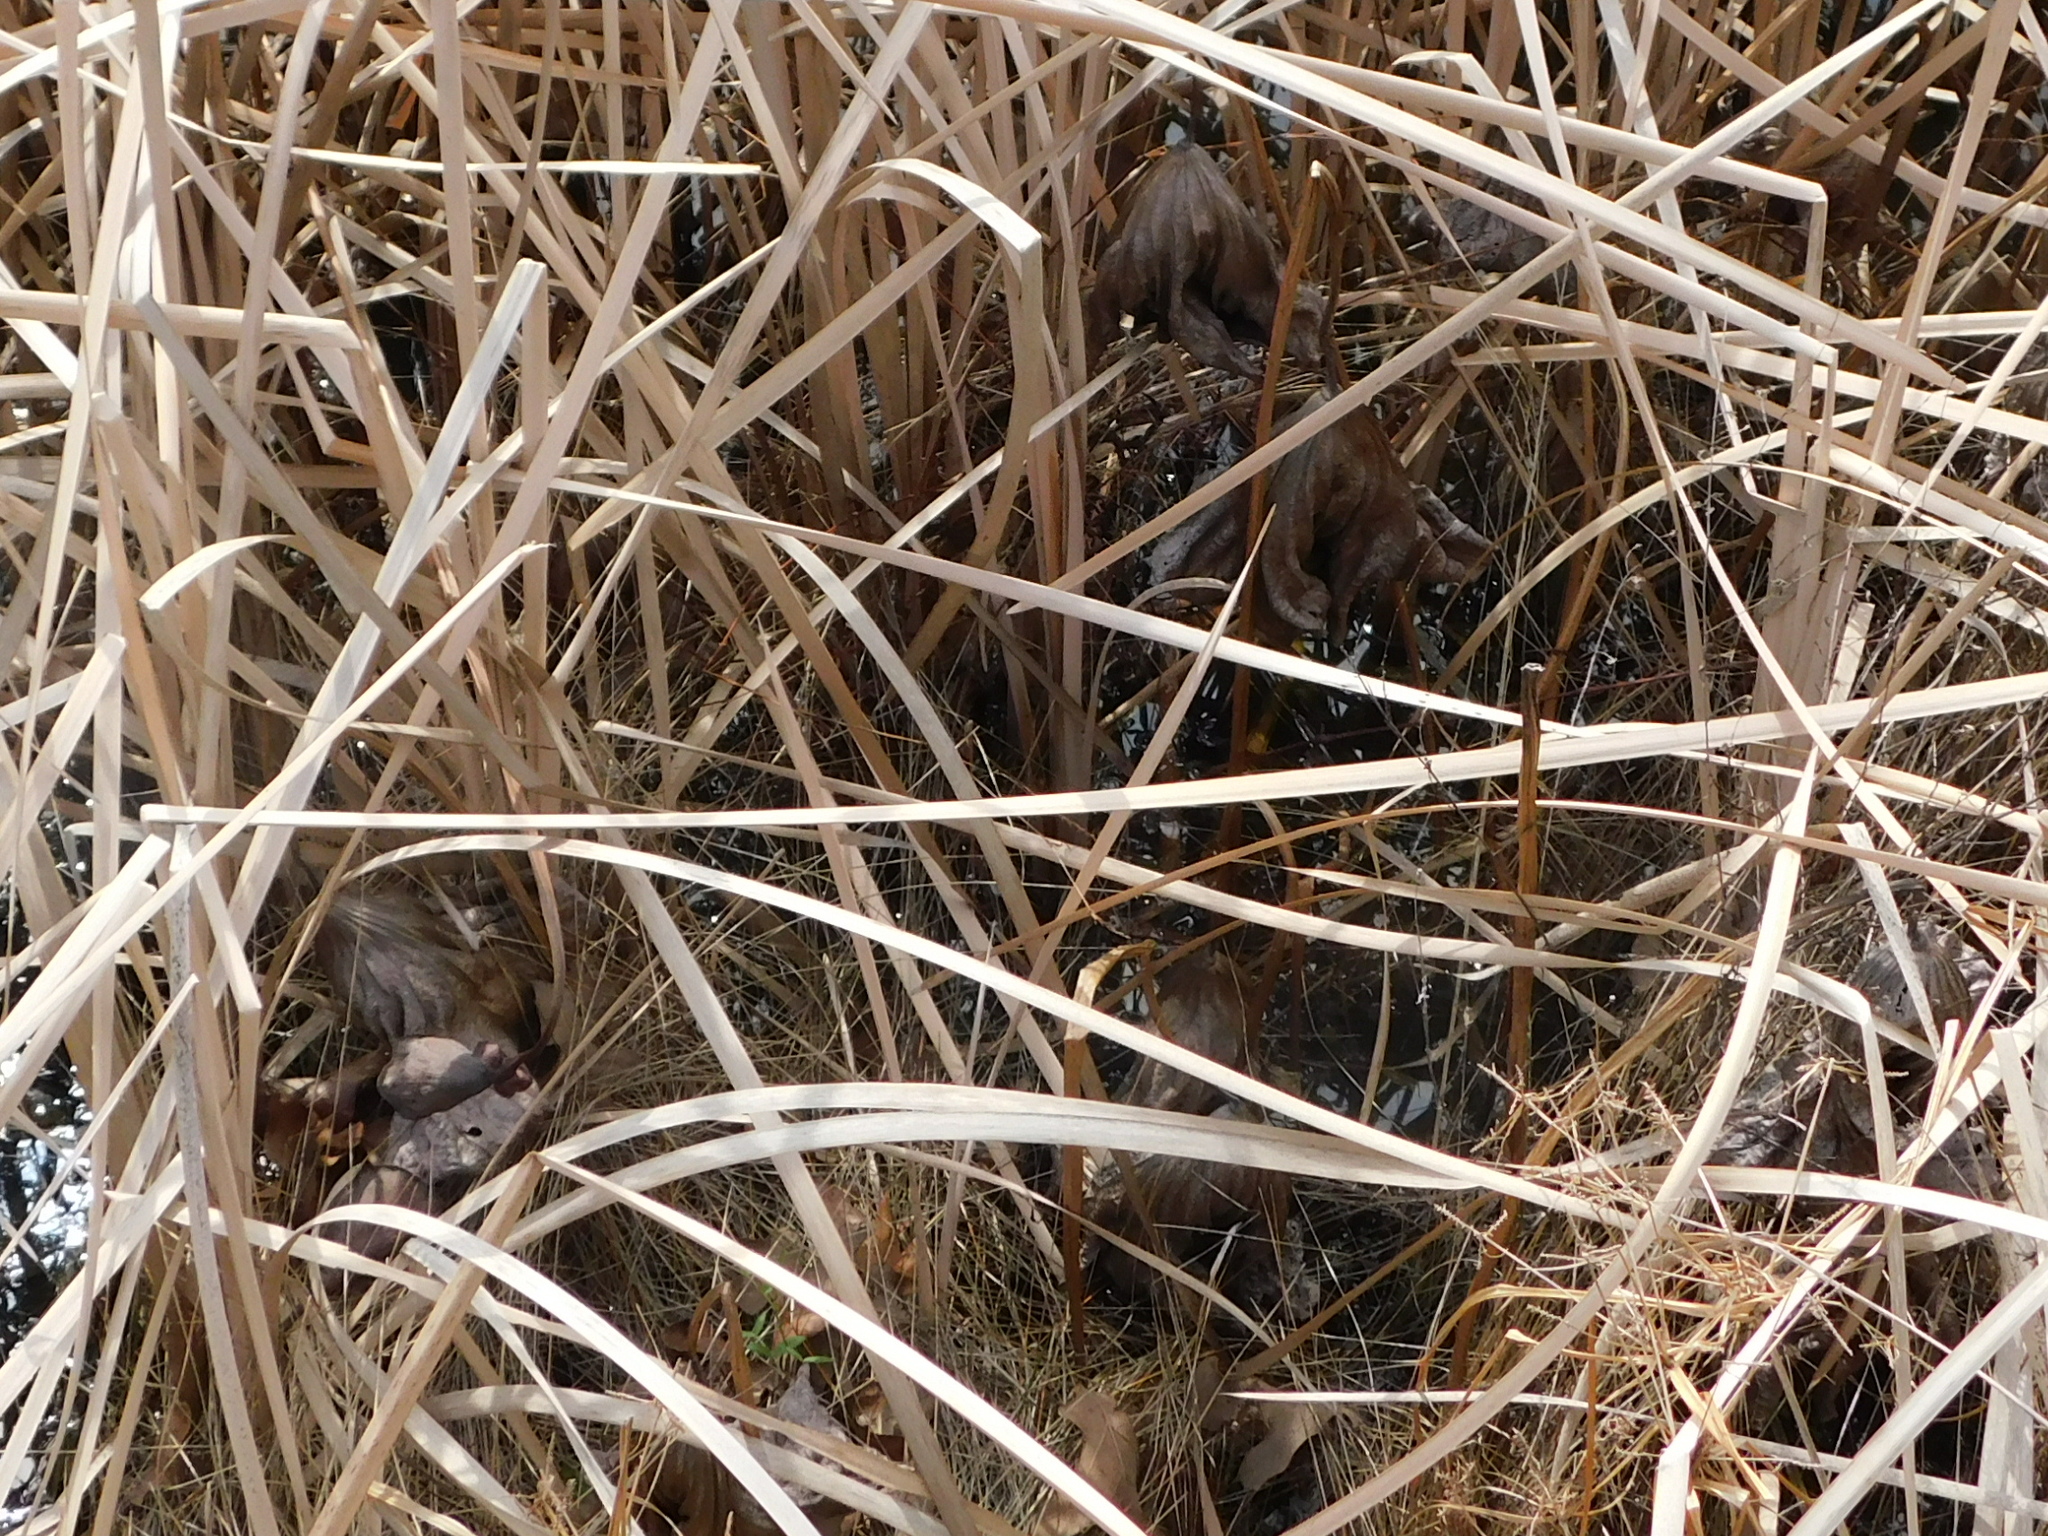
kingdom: Plantae
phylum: Tracheophyta
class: Magnoliopsida
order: Proteales
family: Nelumbonaceae
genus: Nelumbo
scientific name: Nelumbo lutea
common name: American lotus
